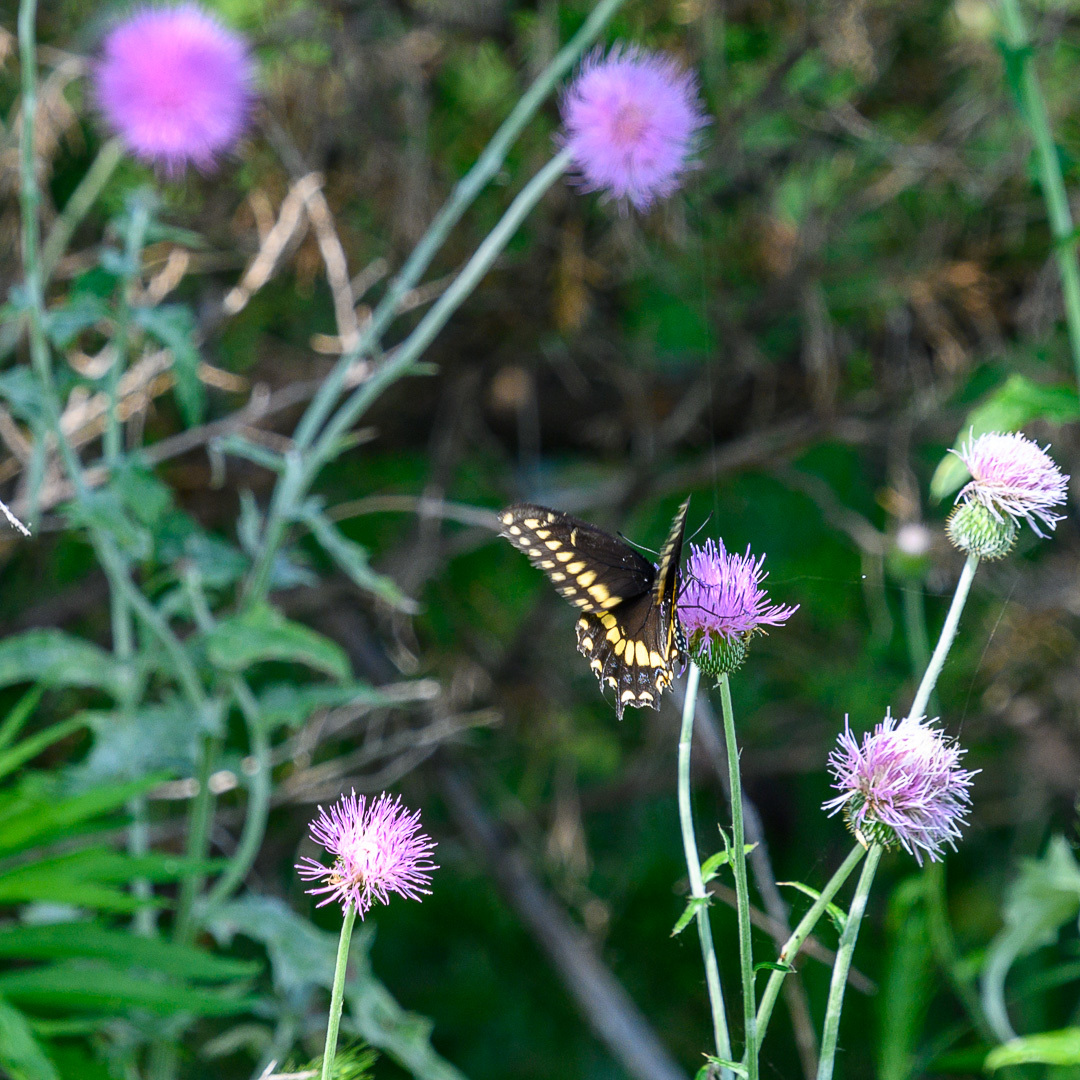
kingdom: Animalia
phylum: Arthropoda
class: Insecta
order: Lepidoptera
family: Papilionidae
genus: Papilio
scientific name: Papilio polyxenes
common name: Black swallowtail
